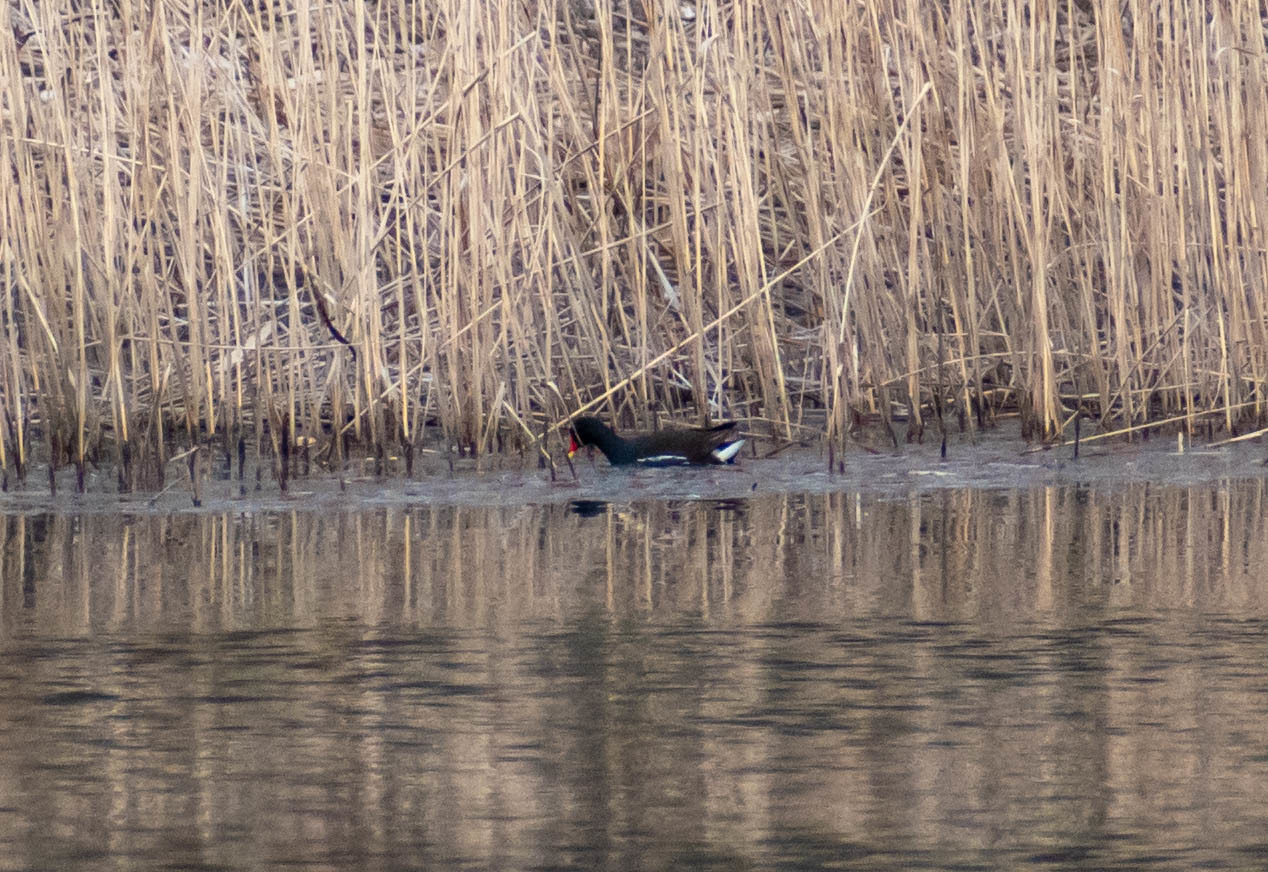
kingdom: Animalia
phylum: Chordata
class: Aves
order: Gruiformes
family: Rallidae
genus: Gallinula
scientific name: Gallinula chloropus
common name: Common moorhen
